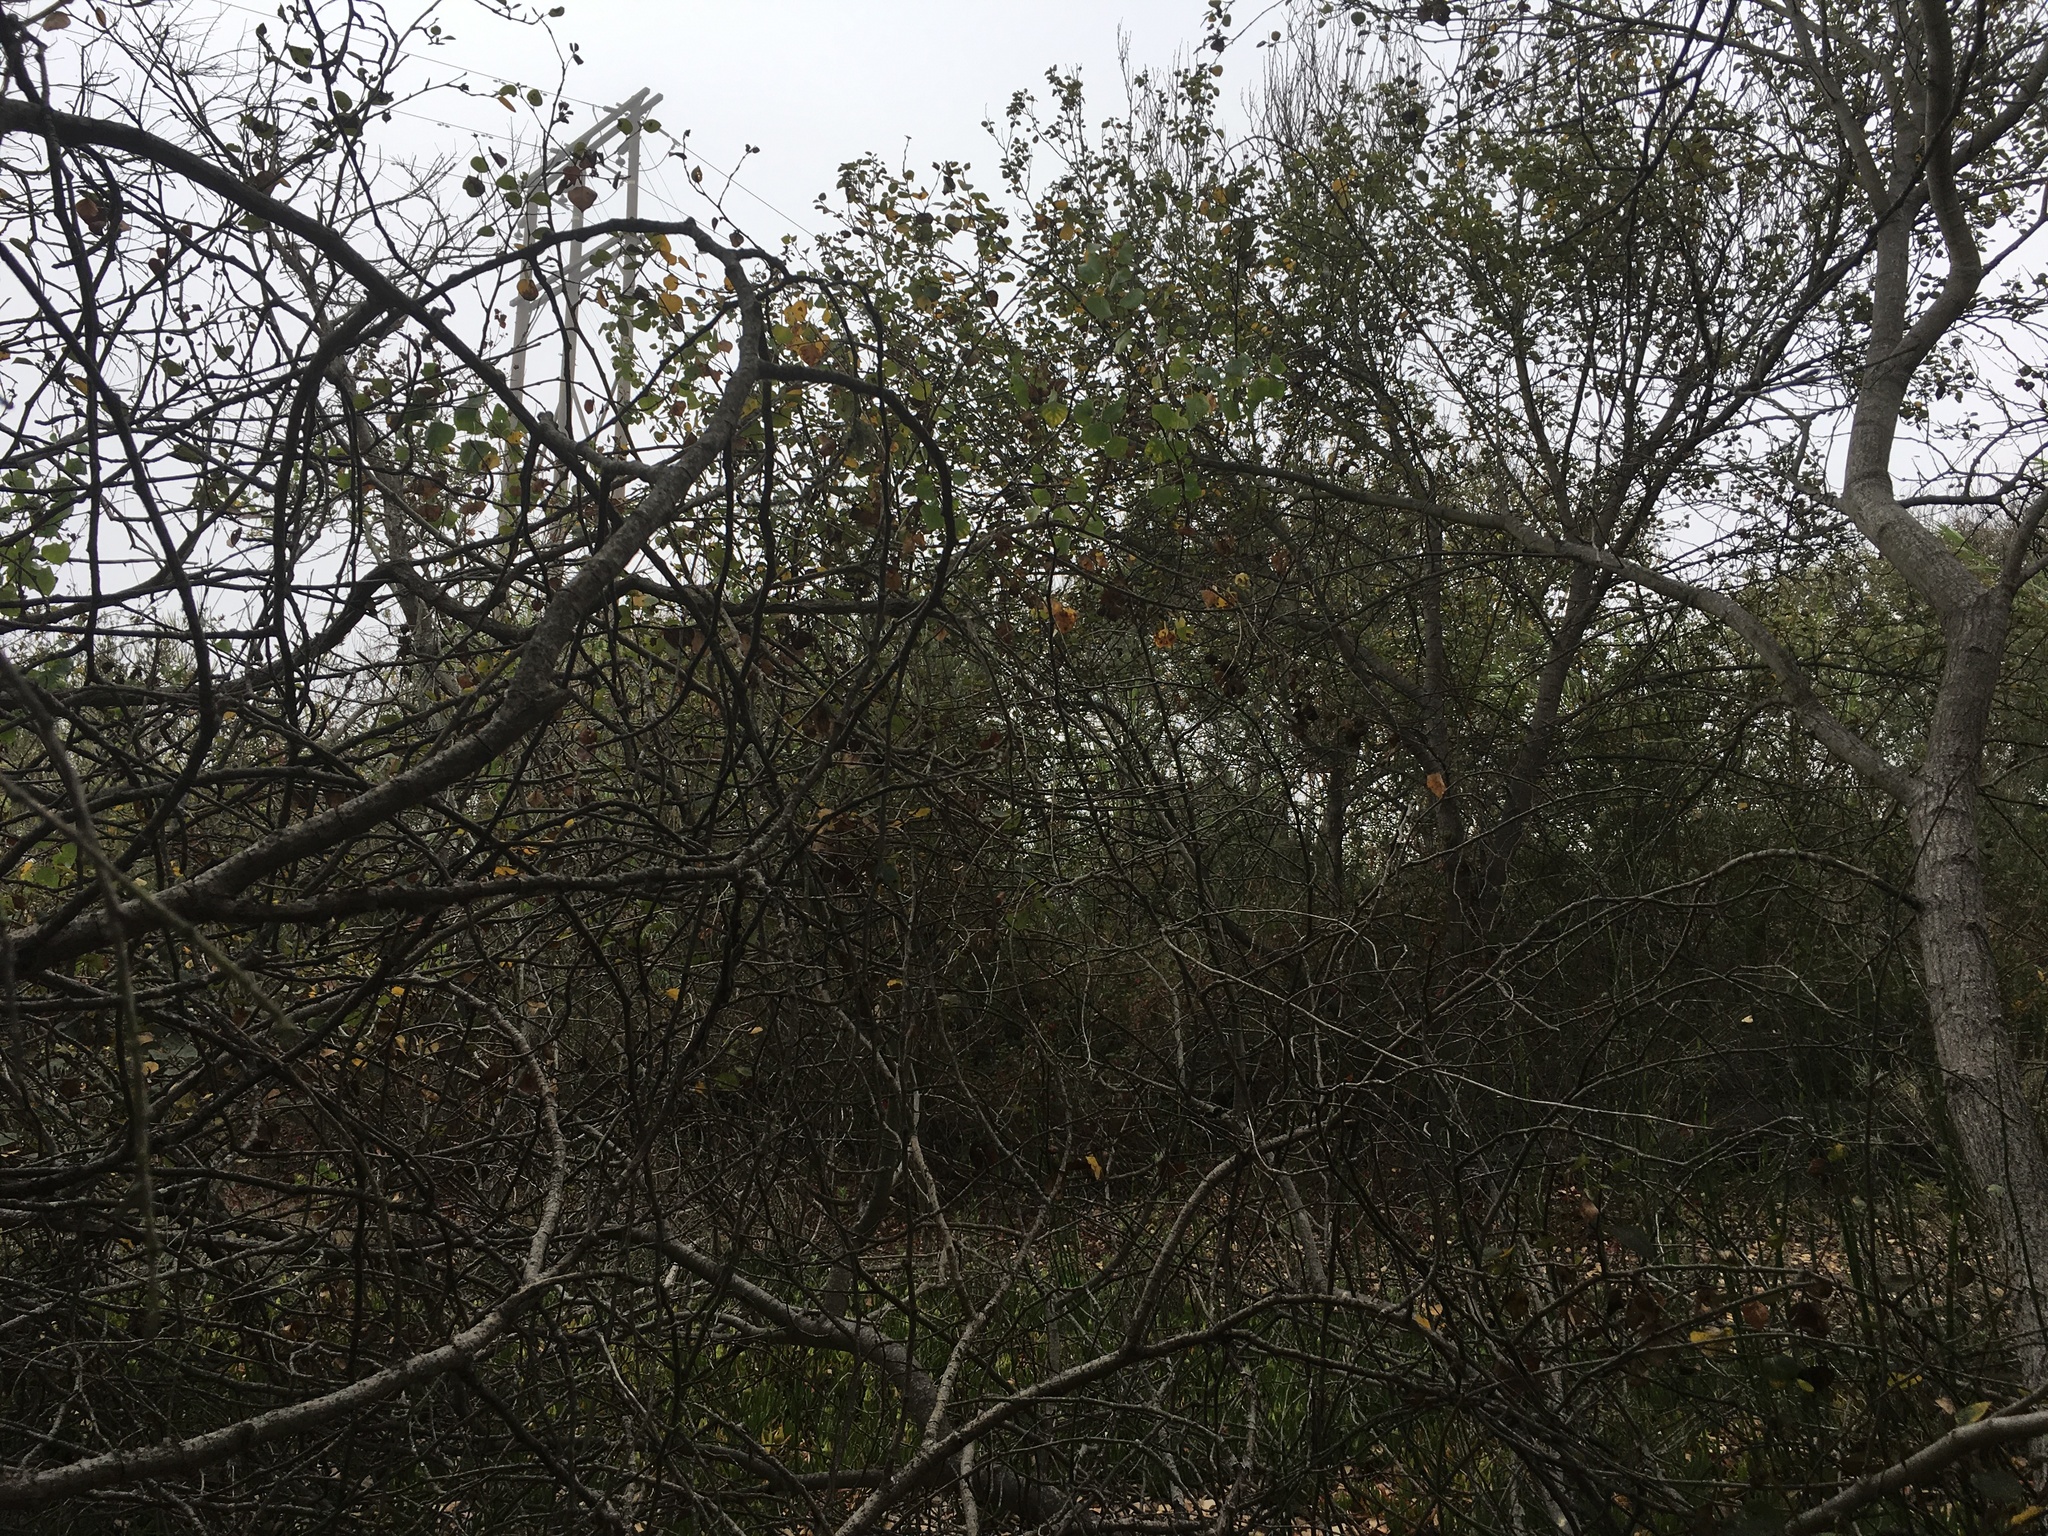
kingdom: Plantae
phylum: Tracheophyta
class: Magnoliopsida
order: Malpighiales
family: Salicaceae
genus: Populus
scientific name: Populus trichocarpa
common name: Black cottonwood
